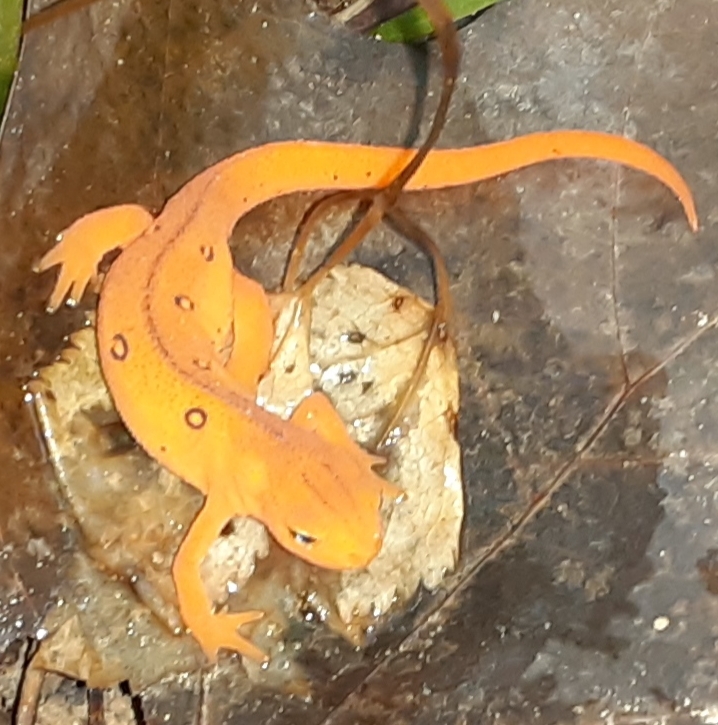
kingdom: Animalia
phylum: Chordata
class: Amphibia
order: Caudata
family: Salamandridae
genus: Notophthalmus
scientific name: Notophthalmus viridescens
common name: Eastern newt
